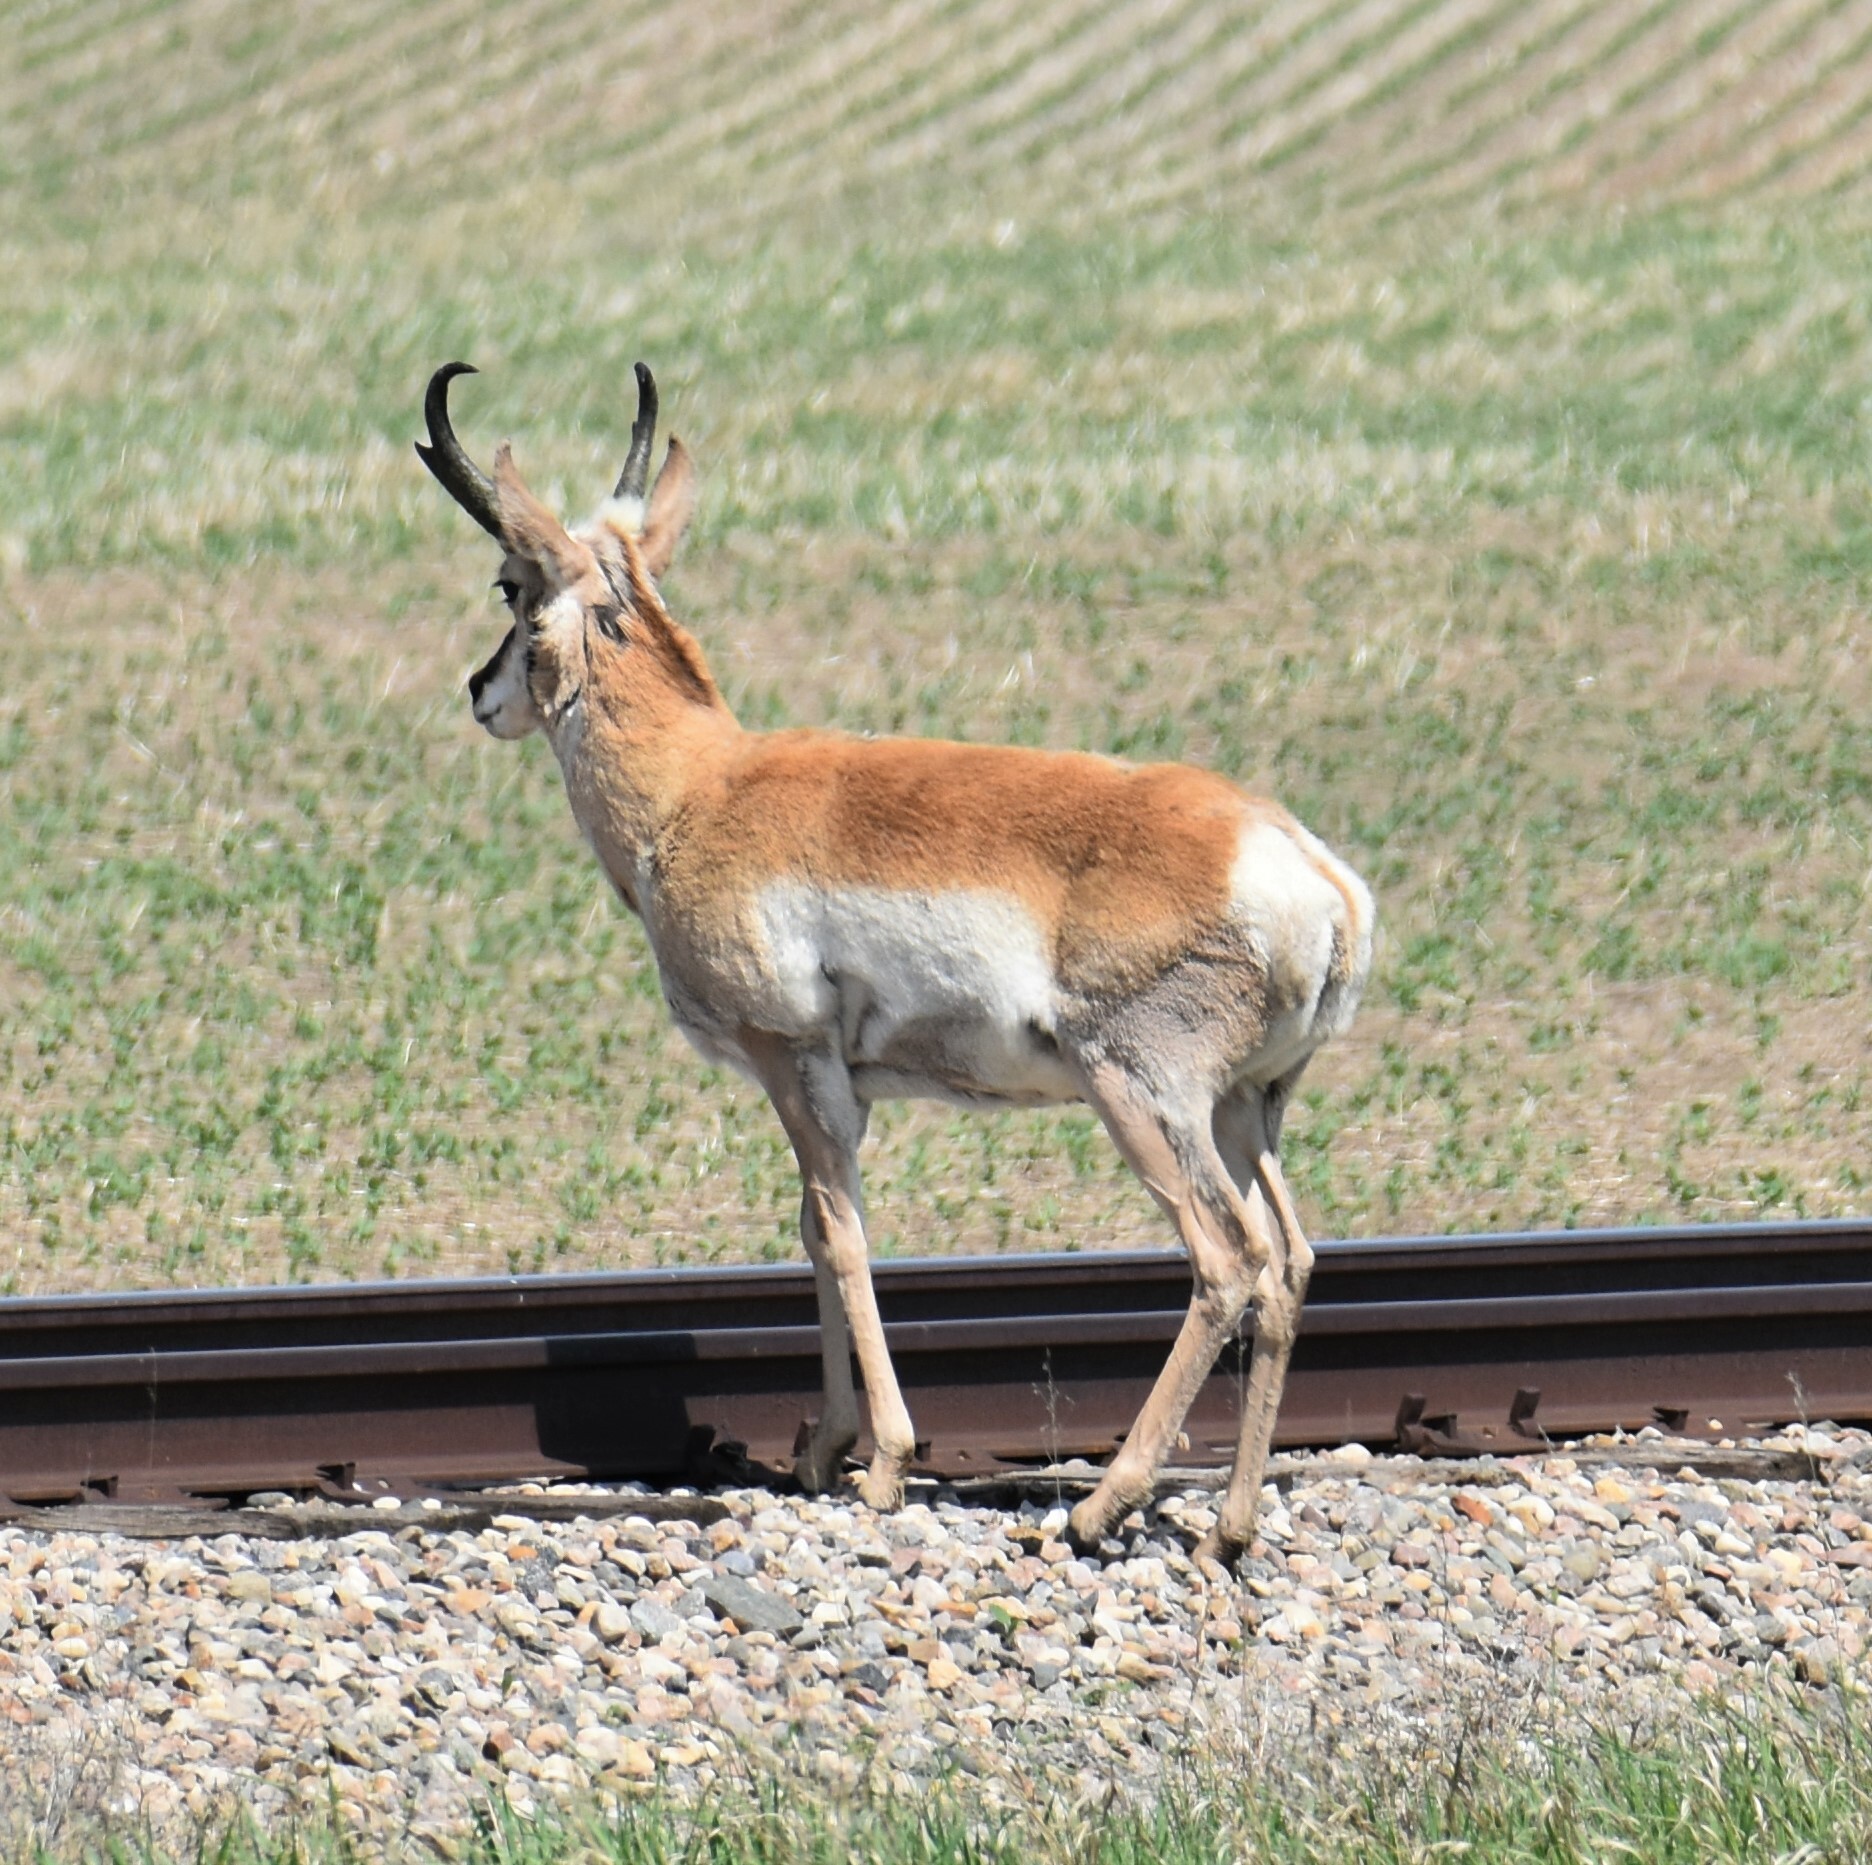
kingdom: Animalia
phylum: Chordata
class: Mammalia
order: Artiodactyla
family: Antilocapridae
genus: Antilocapra
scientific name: Antilocapra americana
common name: Pronghorn
